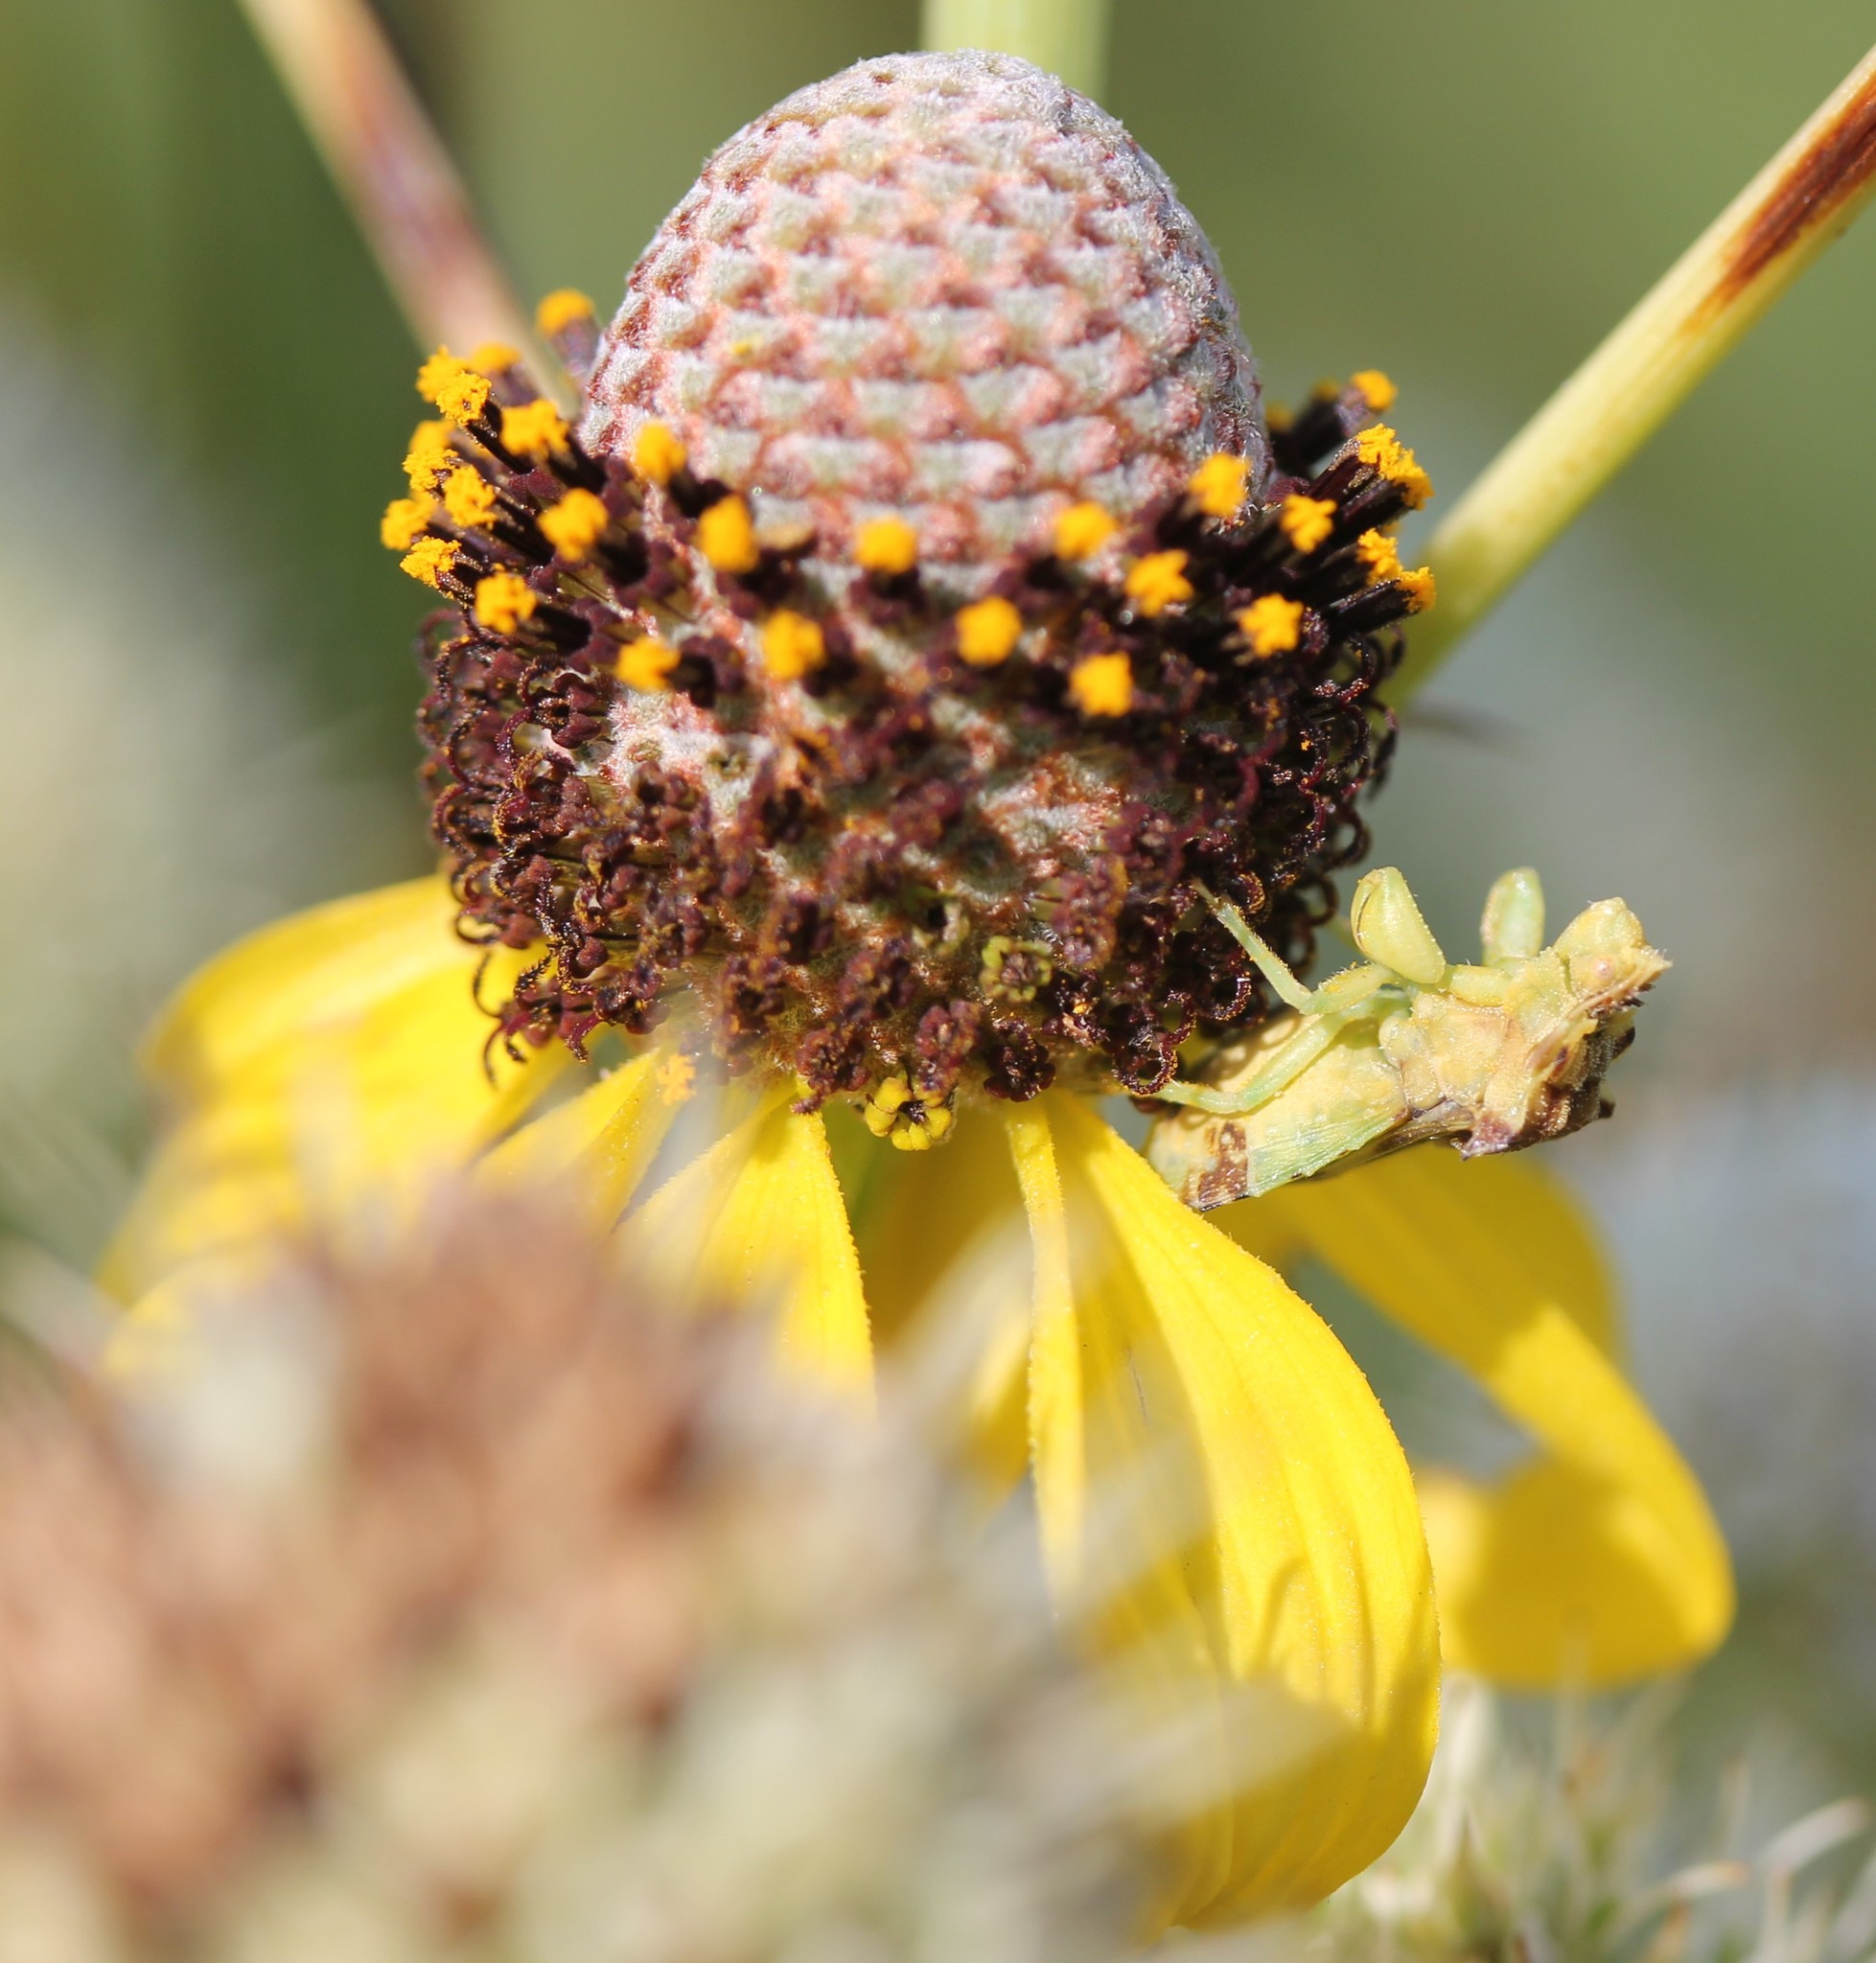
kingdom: Plantae
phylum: Tracheophyta
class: Magnoliopsida
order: Asterales
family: Asteraceae
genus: Ratibida
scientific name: Ratibida pinnata
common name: Drooping prairie-coneflower
